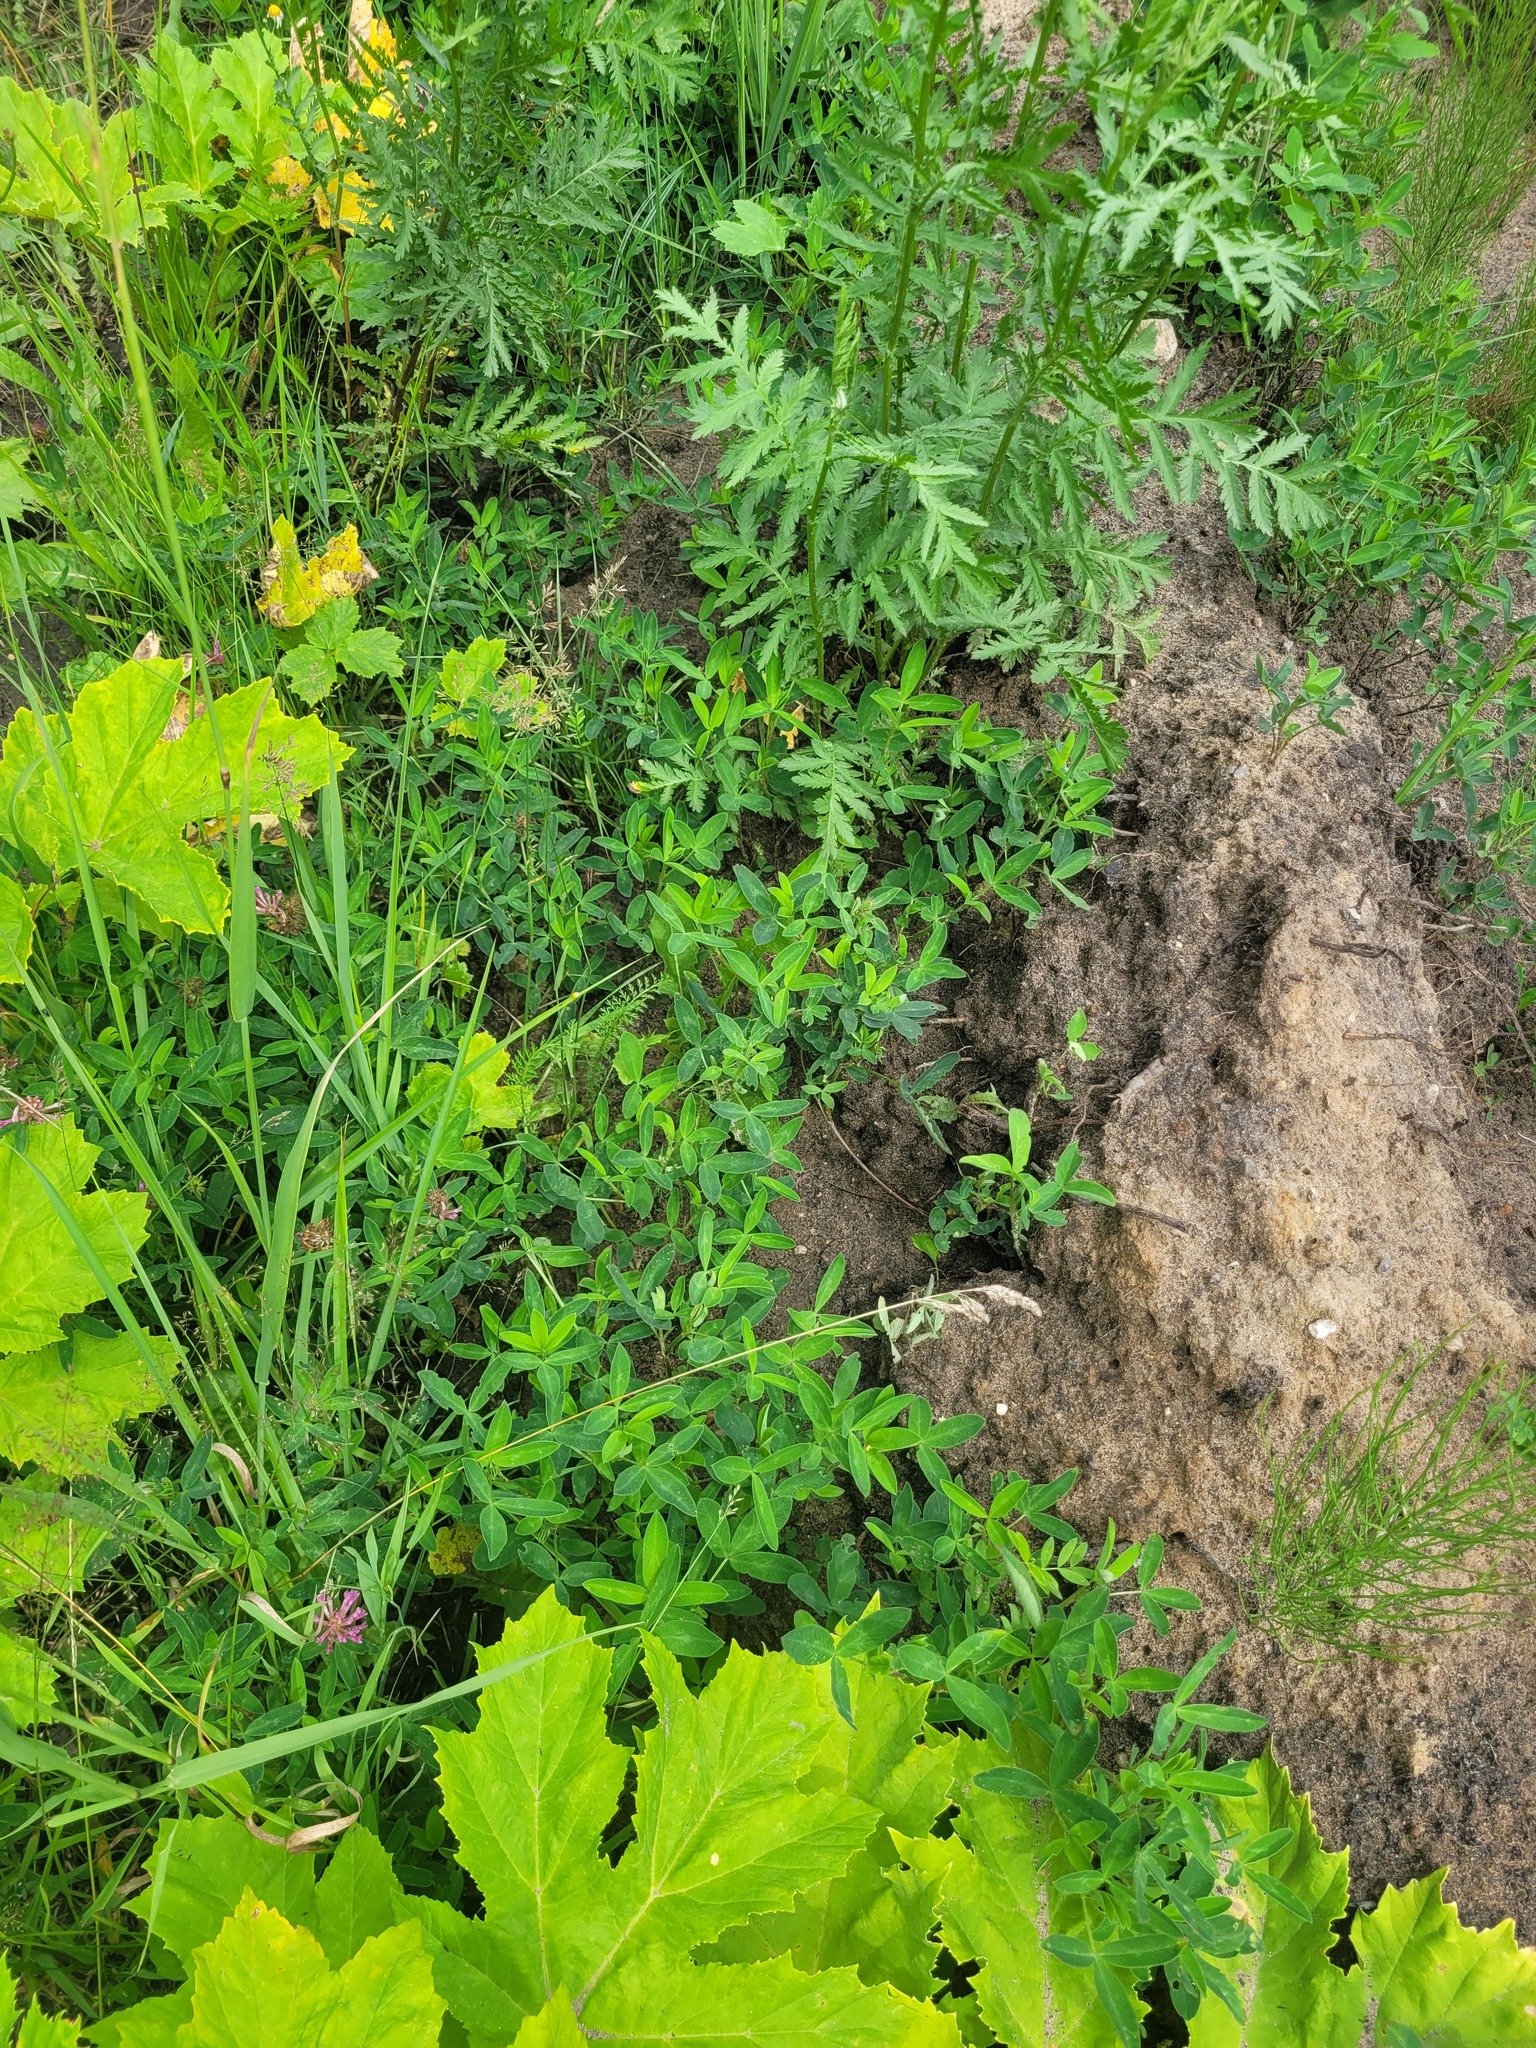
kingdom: Plantae
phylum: Tracheophyta
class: Magnoliopsida
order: Fabales
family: Fabaceae
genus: Trifolium
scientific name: Trifolium medium
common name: Zigzag clover
